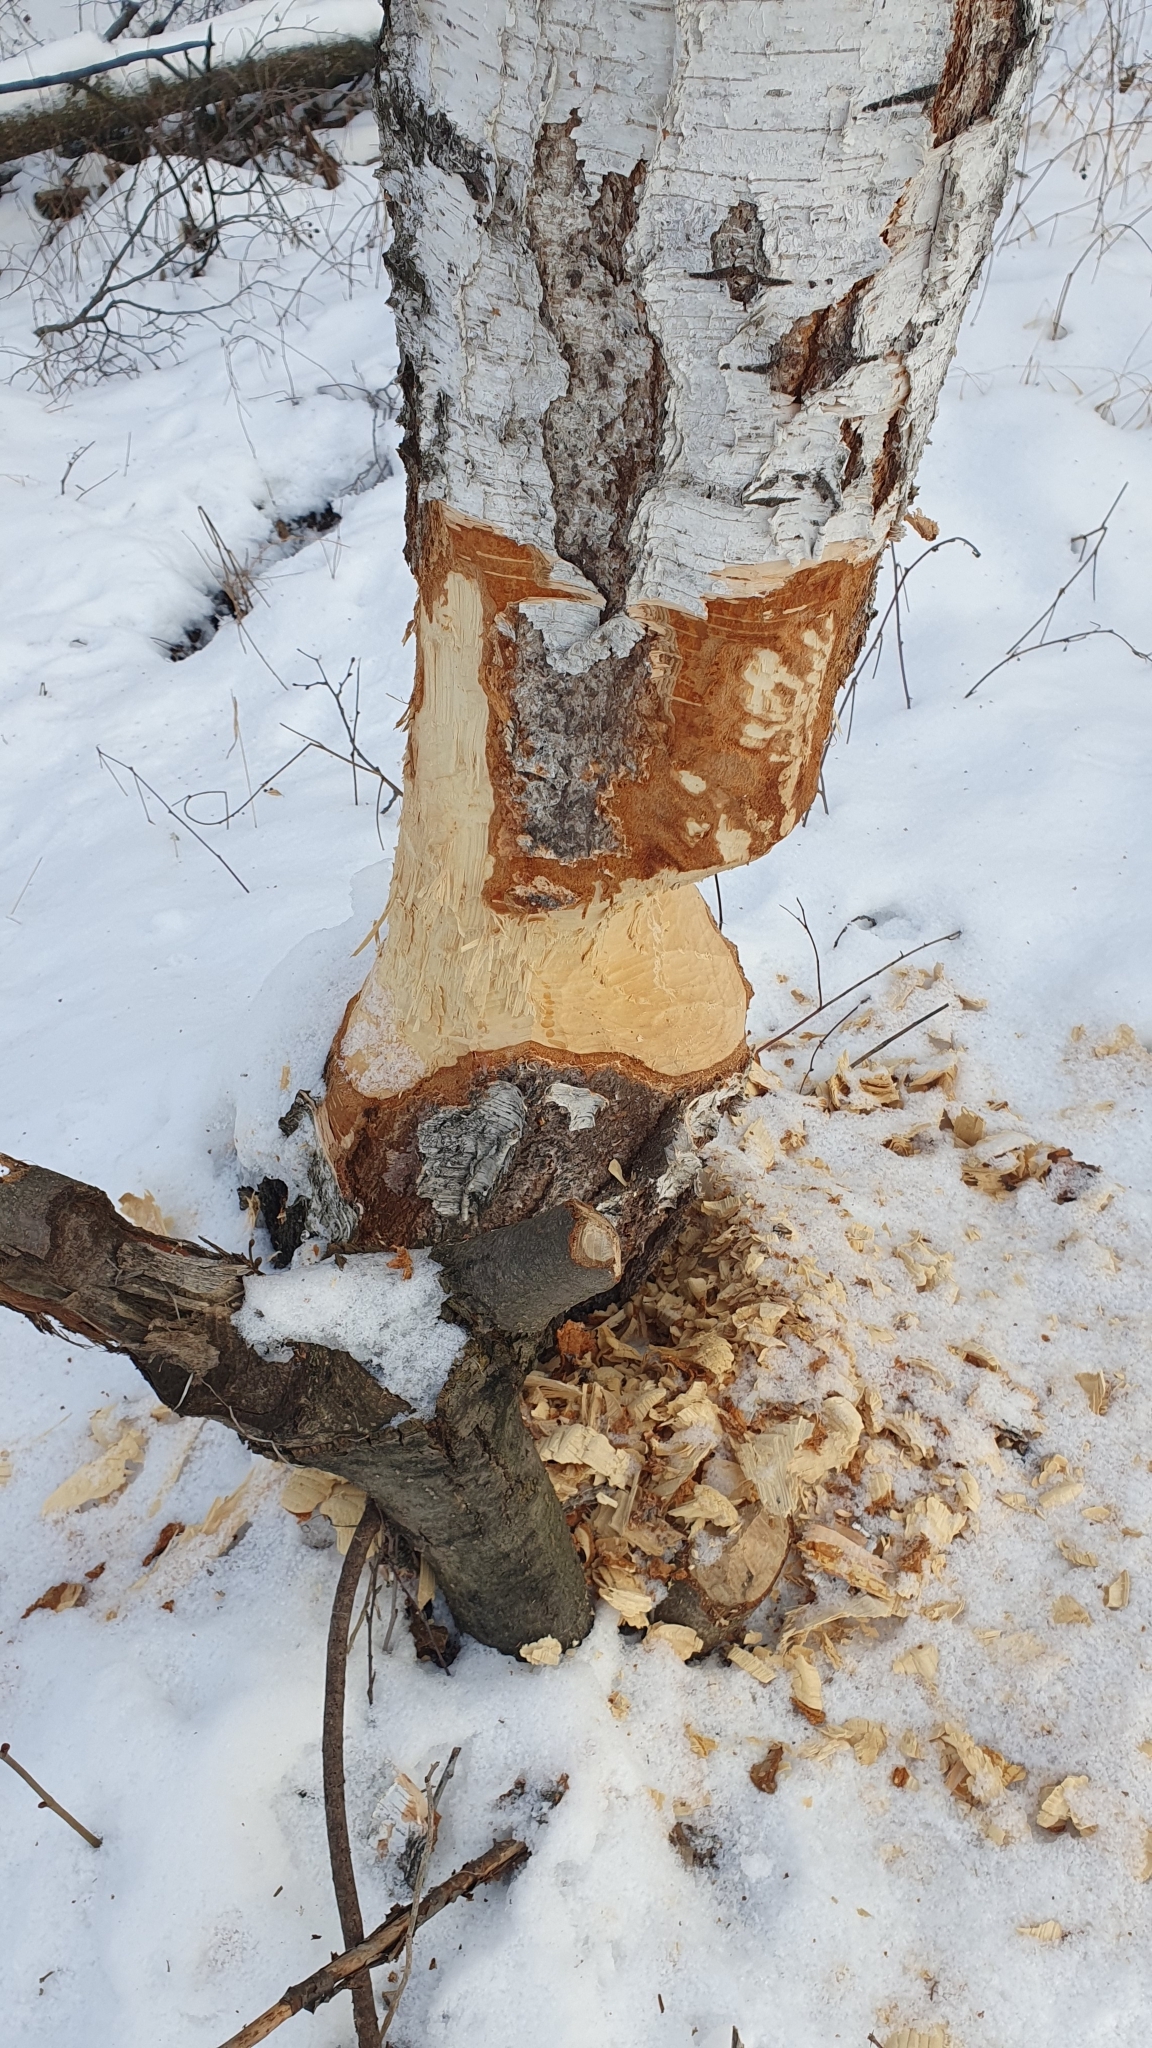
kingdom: Animalia
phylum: Chordata
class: Mammalia
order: Rodentia
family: Castoridae
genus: Castor
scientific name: Castor fiber
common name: Eurasian beaver
